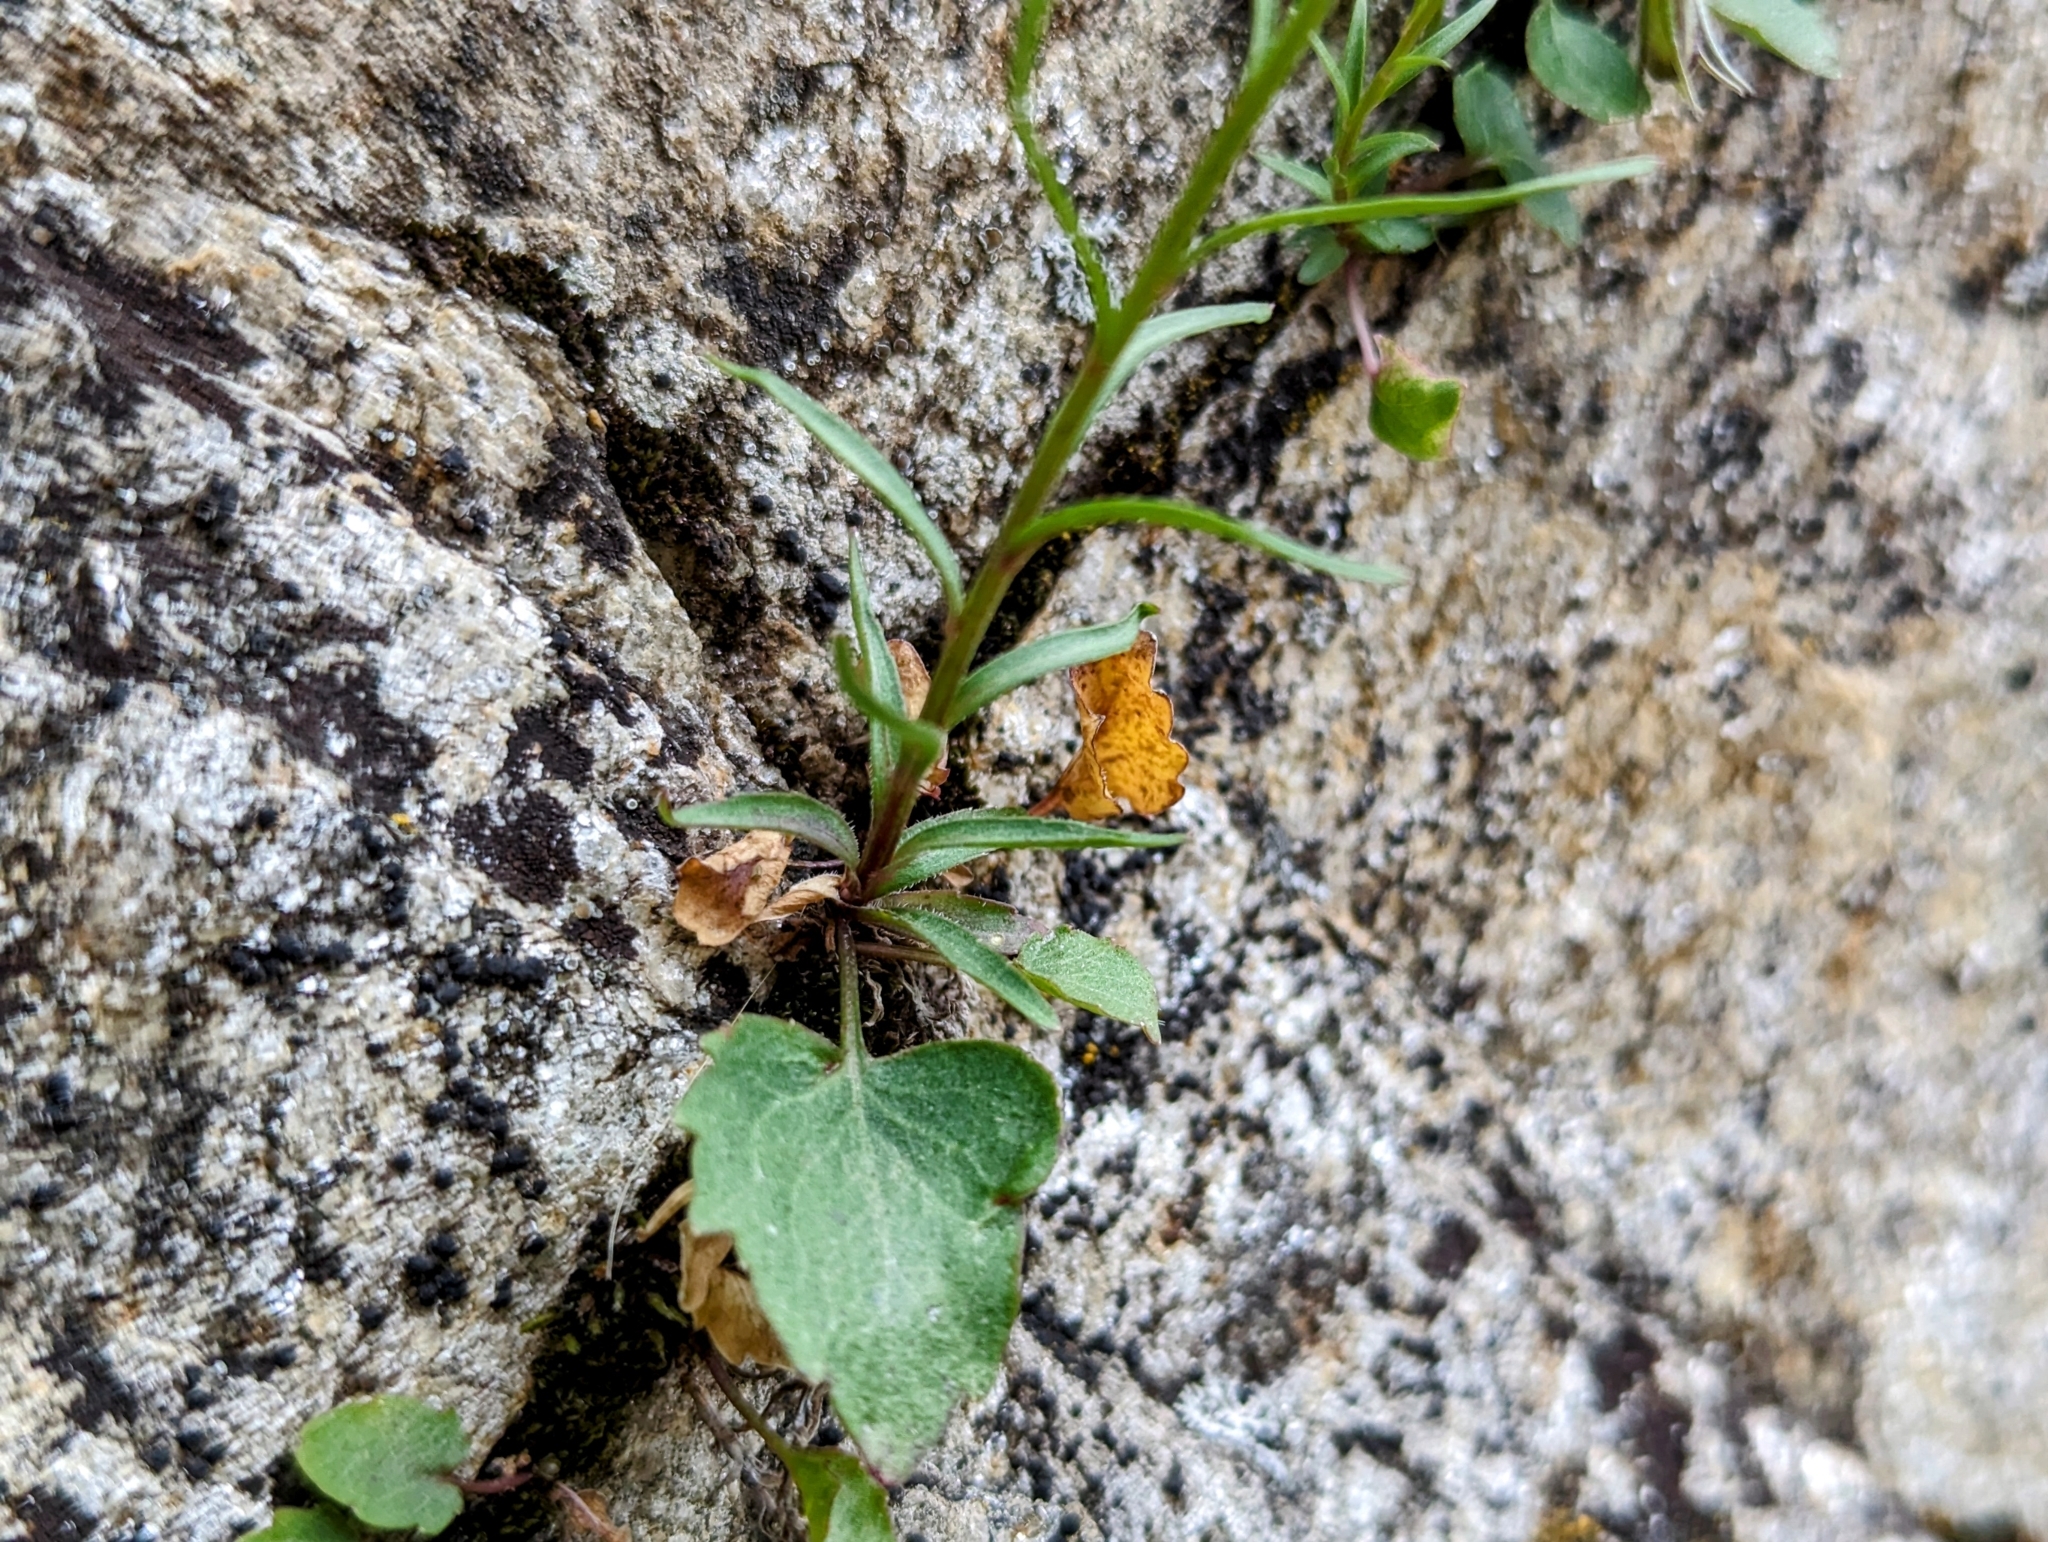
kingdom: Plantae
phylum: Tracheophyta
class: Magnoliopsida
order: Asterales
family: Campanulaceae
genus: Campanula
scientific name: Campanula scheuchzeri
